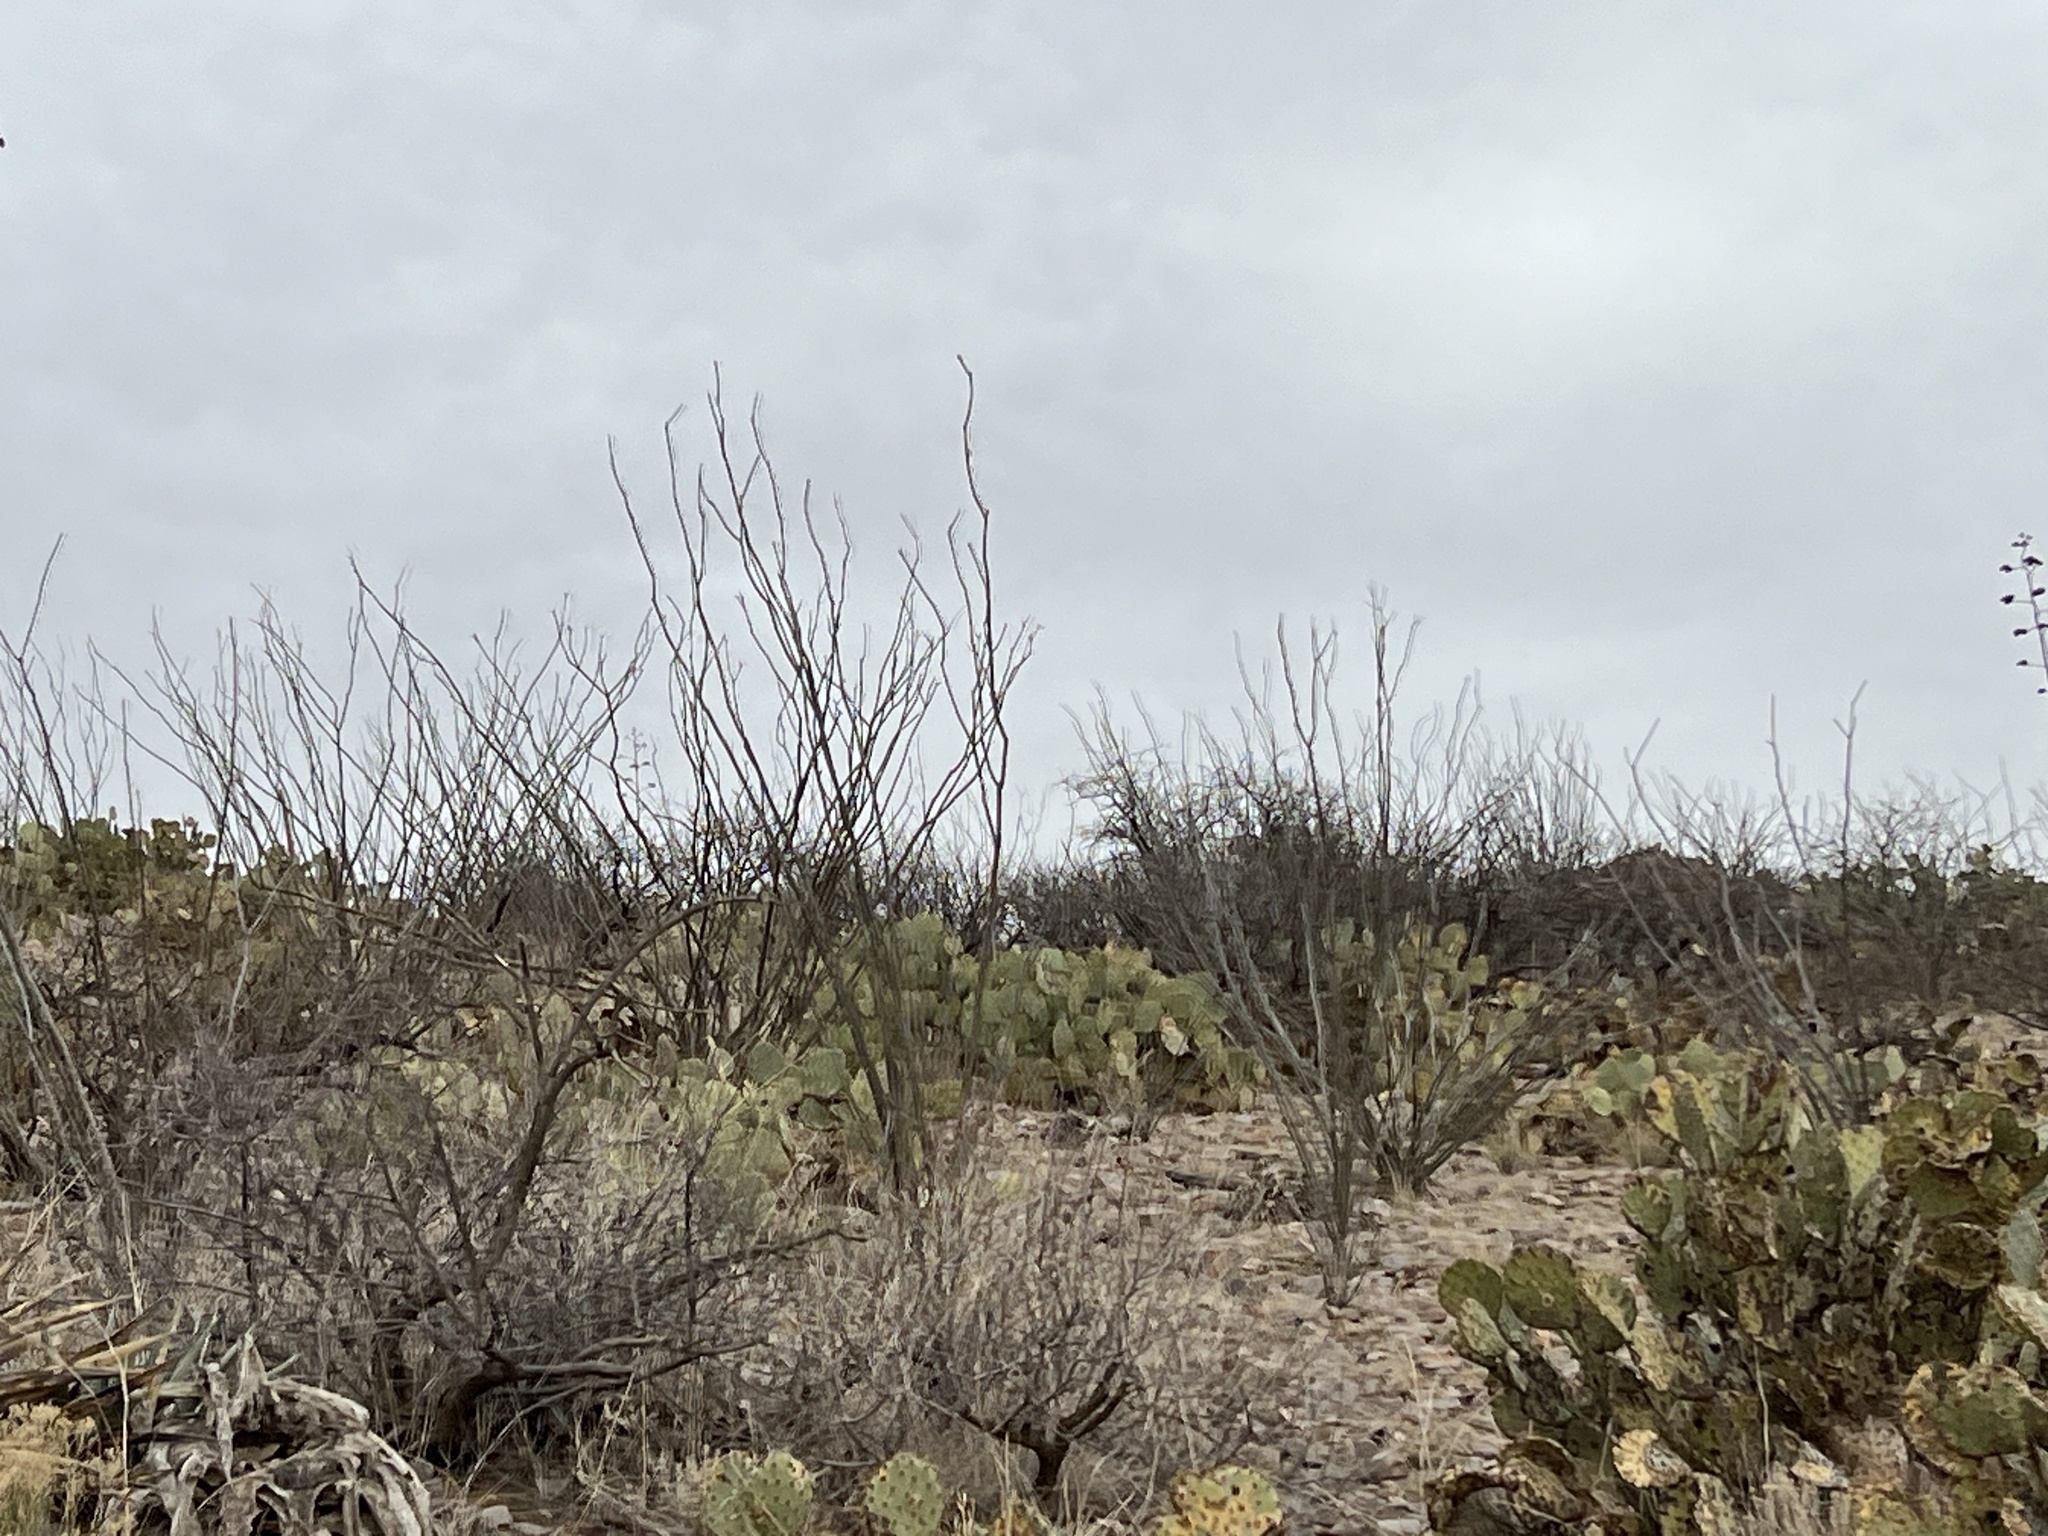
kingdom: Plantae
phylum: Tracheophyta
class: Magnoliopsida
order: Ericales
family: Fouquieriaceae
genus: Fouquieria
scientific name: Fouquieria splendens
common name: Vine-cactus
